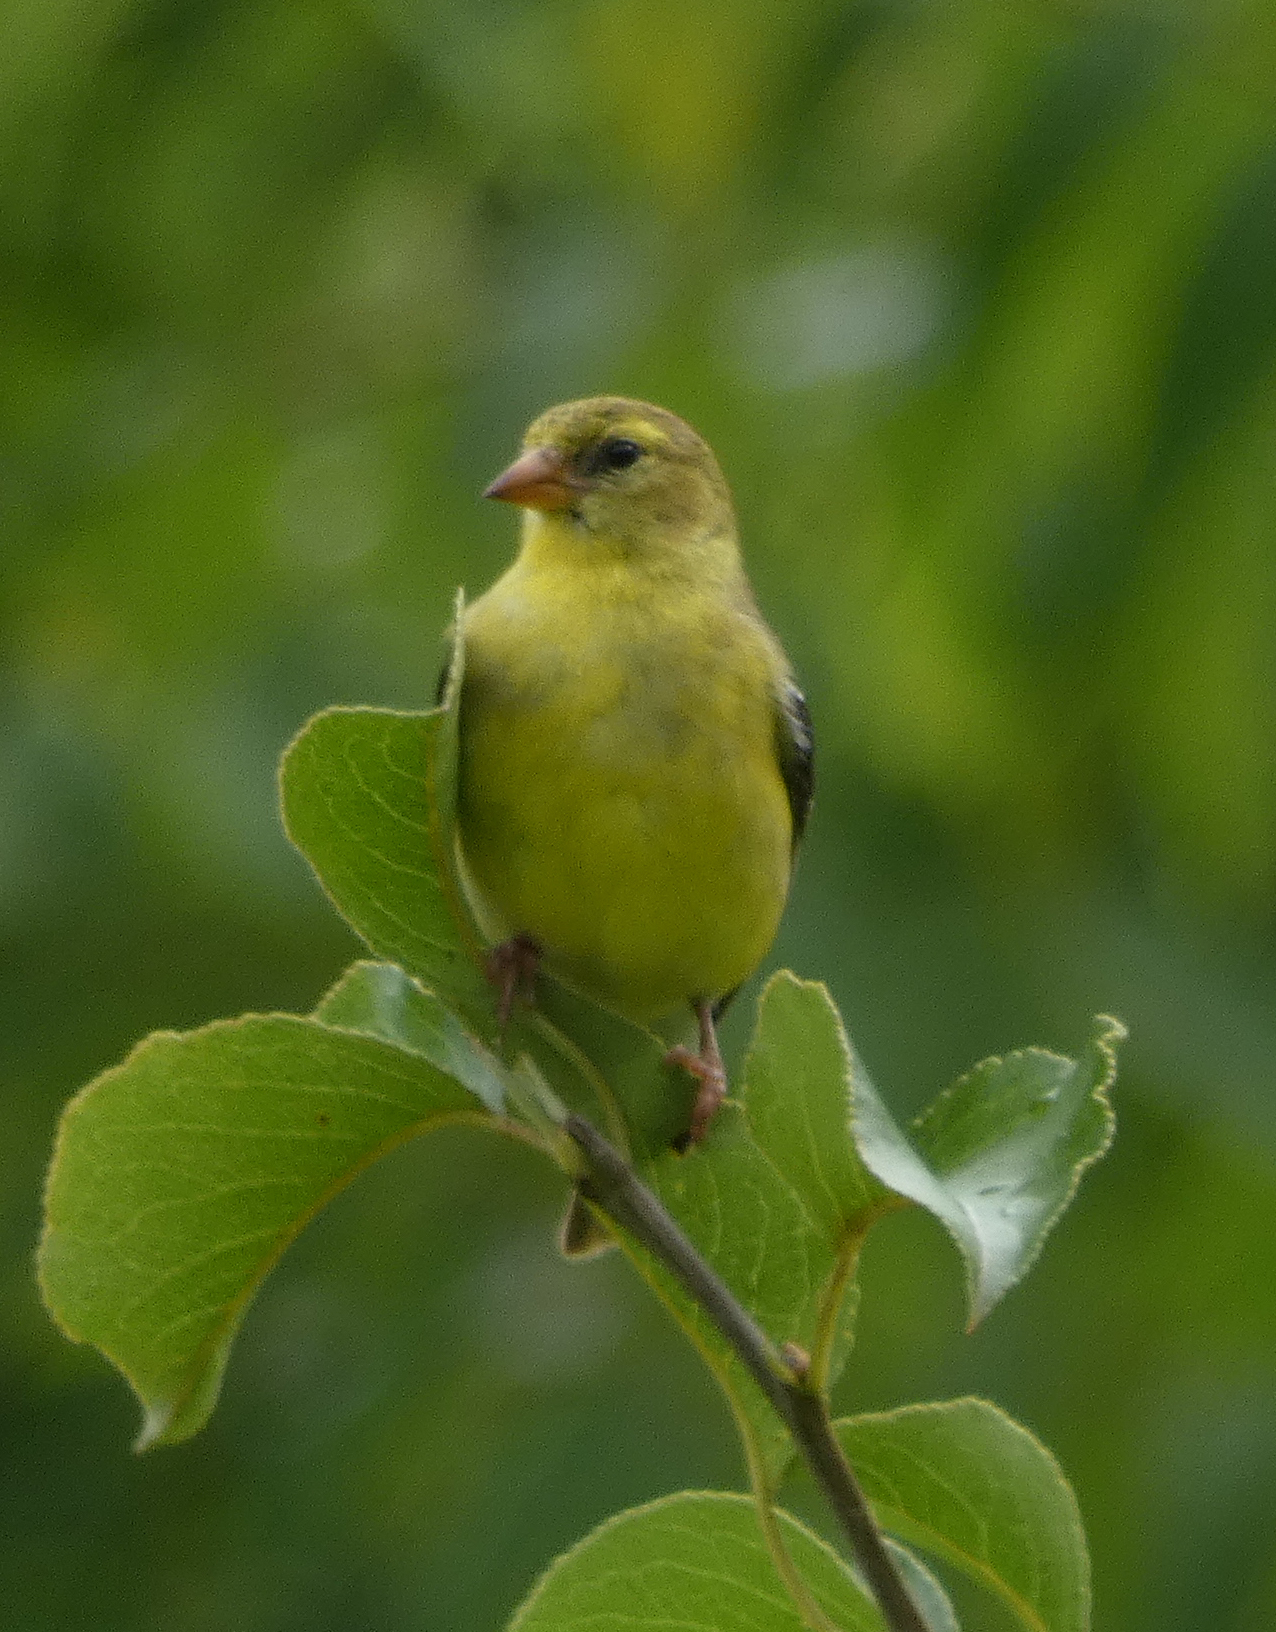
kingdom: Animalia
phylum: Chordata
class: Aves
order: Passeriformes
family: Fringillidae
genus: Spinus
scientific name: Spinus tristis
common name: American goldfinch
